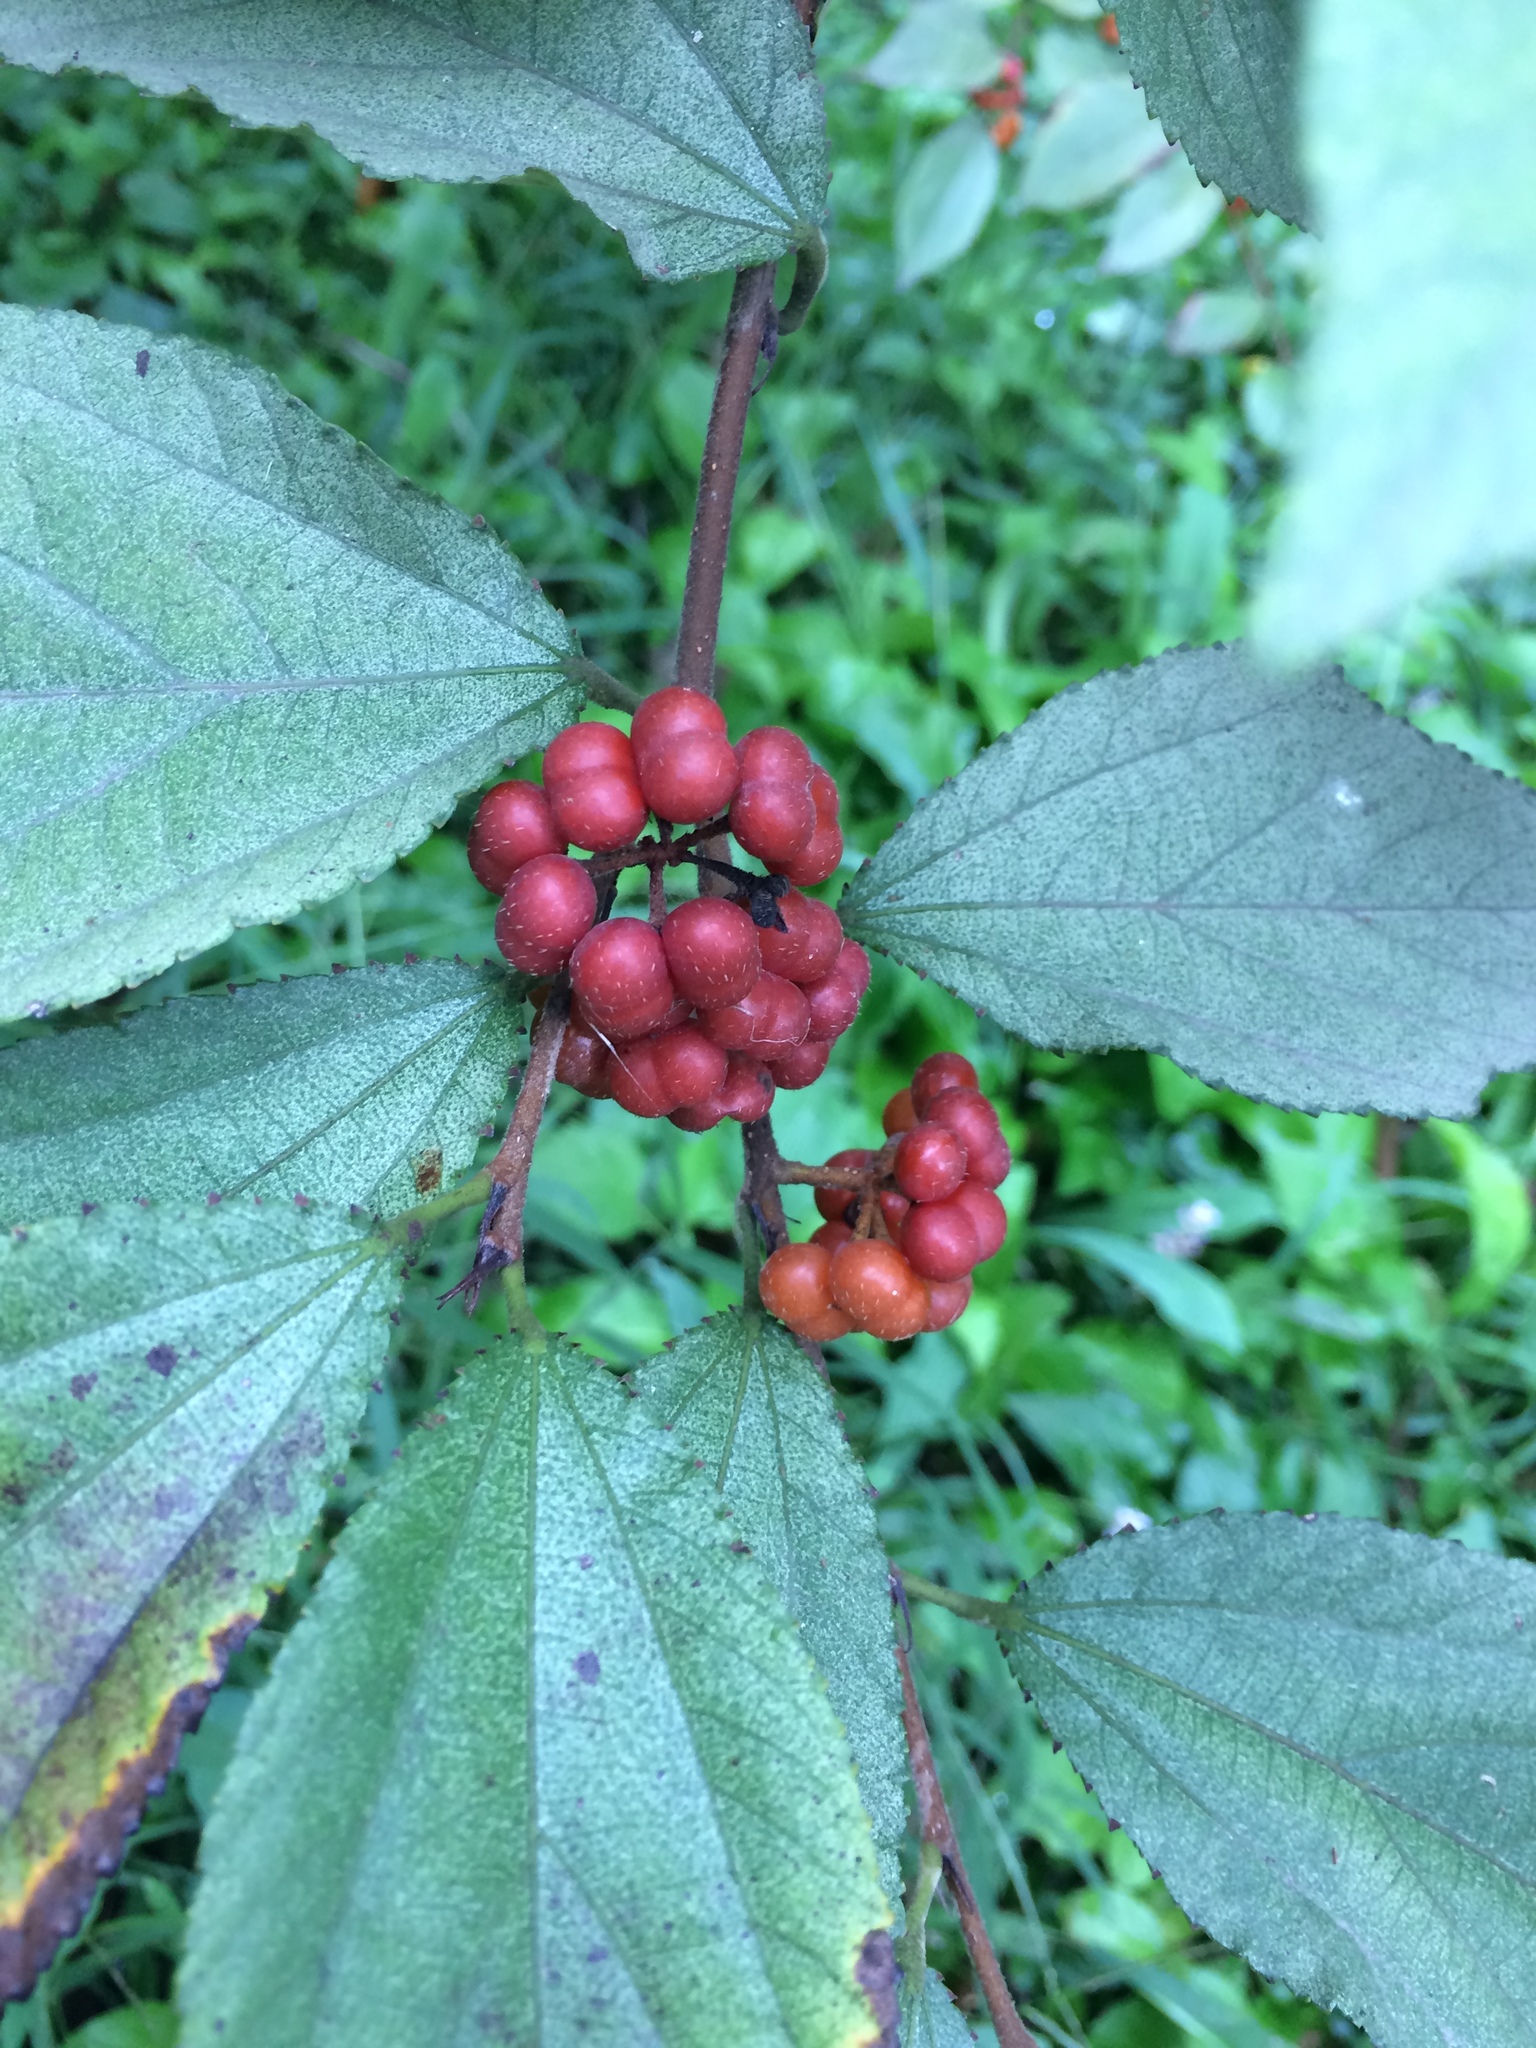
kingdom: Plantae
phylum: Tracheophyta
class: Magnoliopsida
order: Malvales
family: Malvaceae
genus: Grewia
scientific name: Grewia biloba
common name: Bilobed grewia
